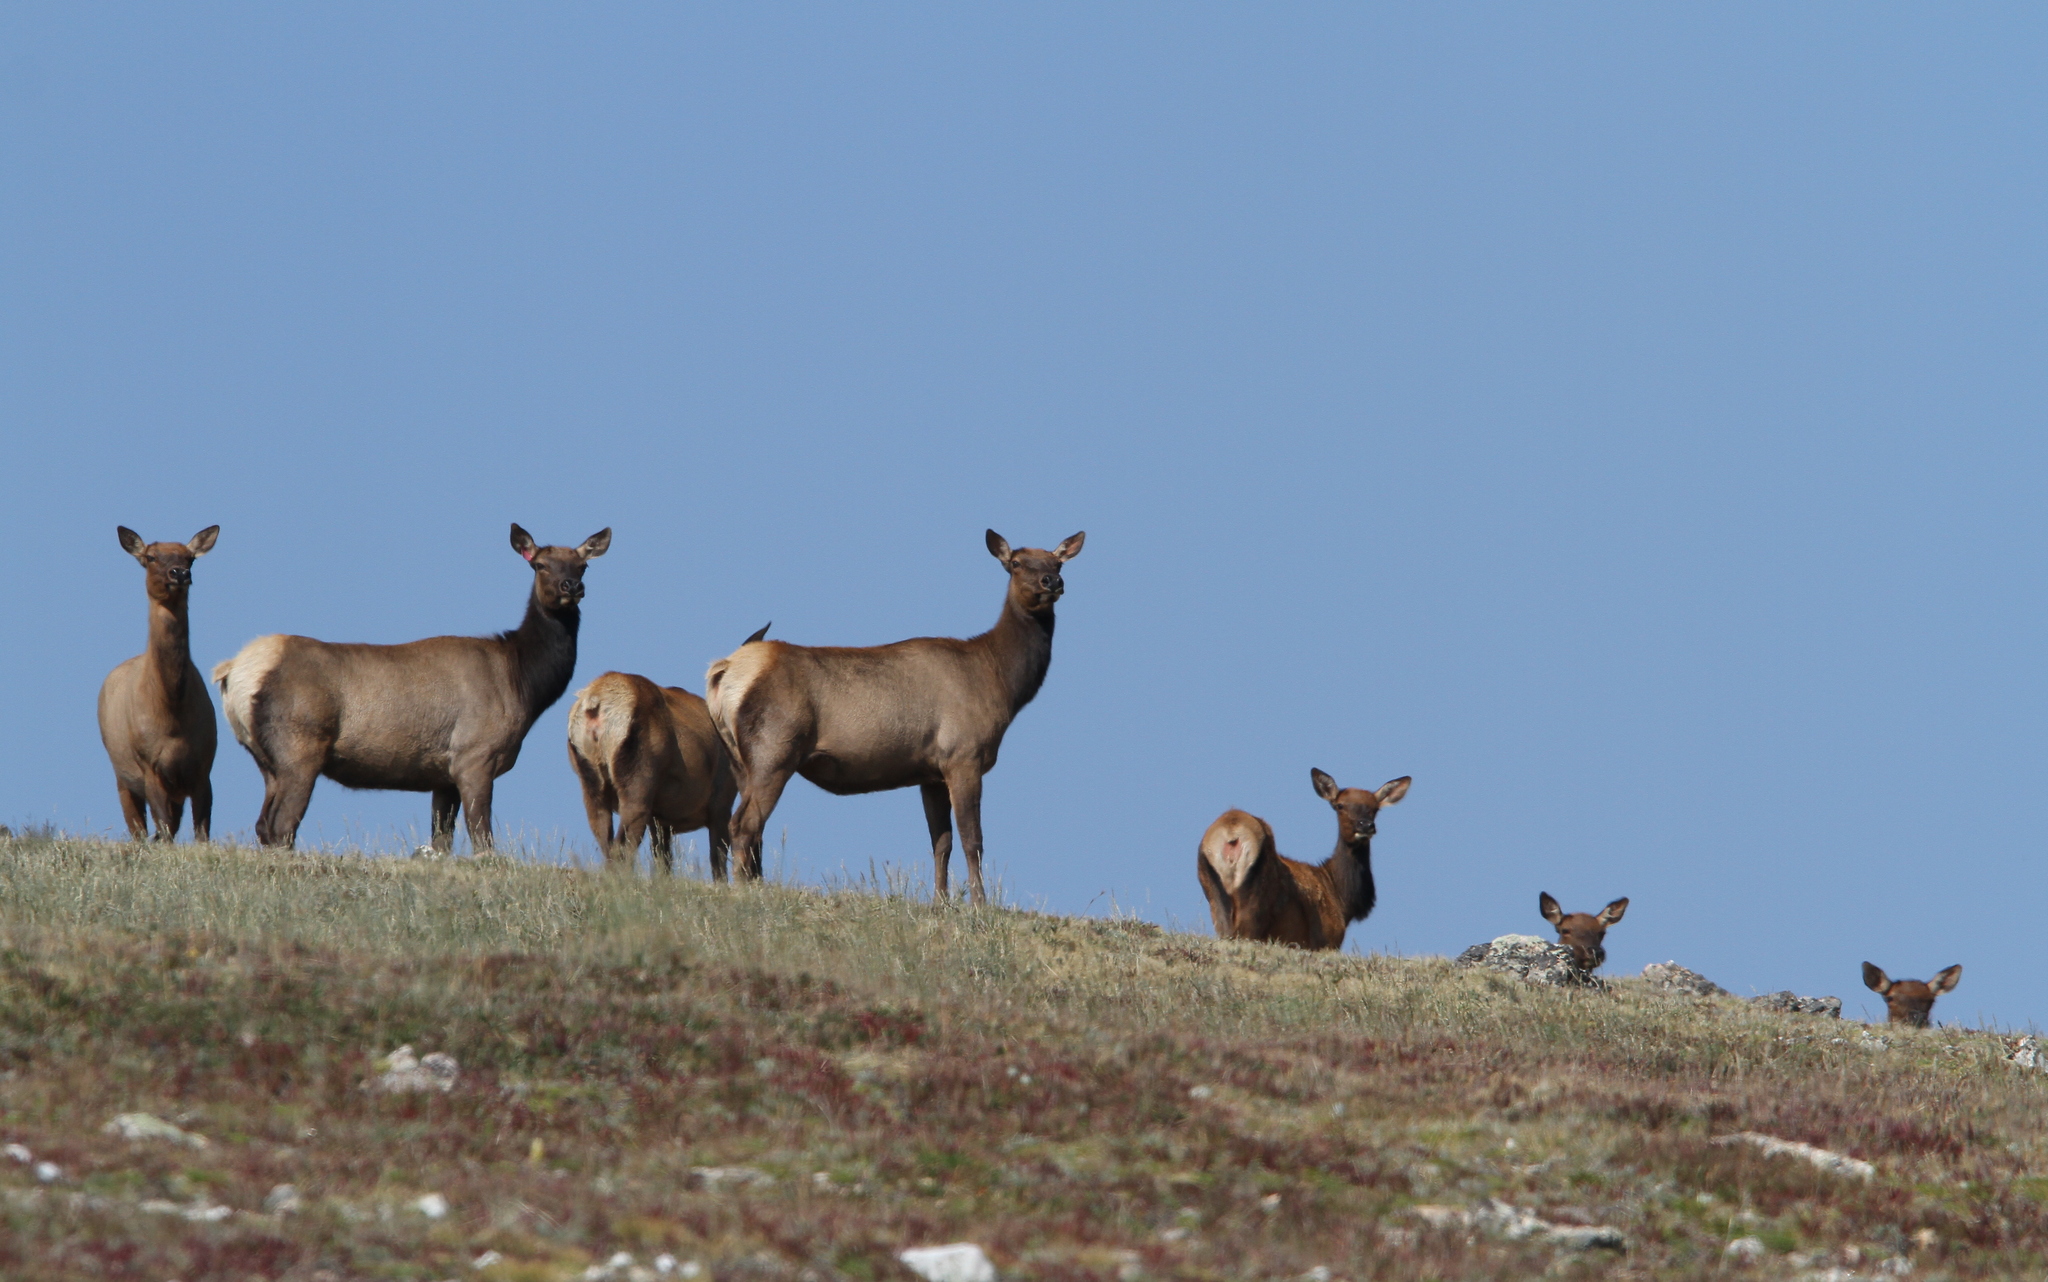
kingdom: Animalia
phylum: Chordata
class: Mammalia
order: Artiodactyla
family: Cervidae
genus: Cervus
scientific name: Cervus elaphus
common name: Red deer
